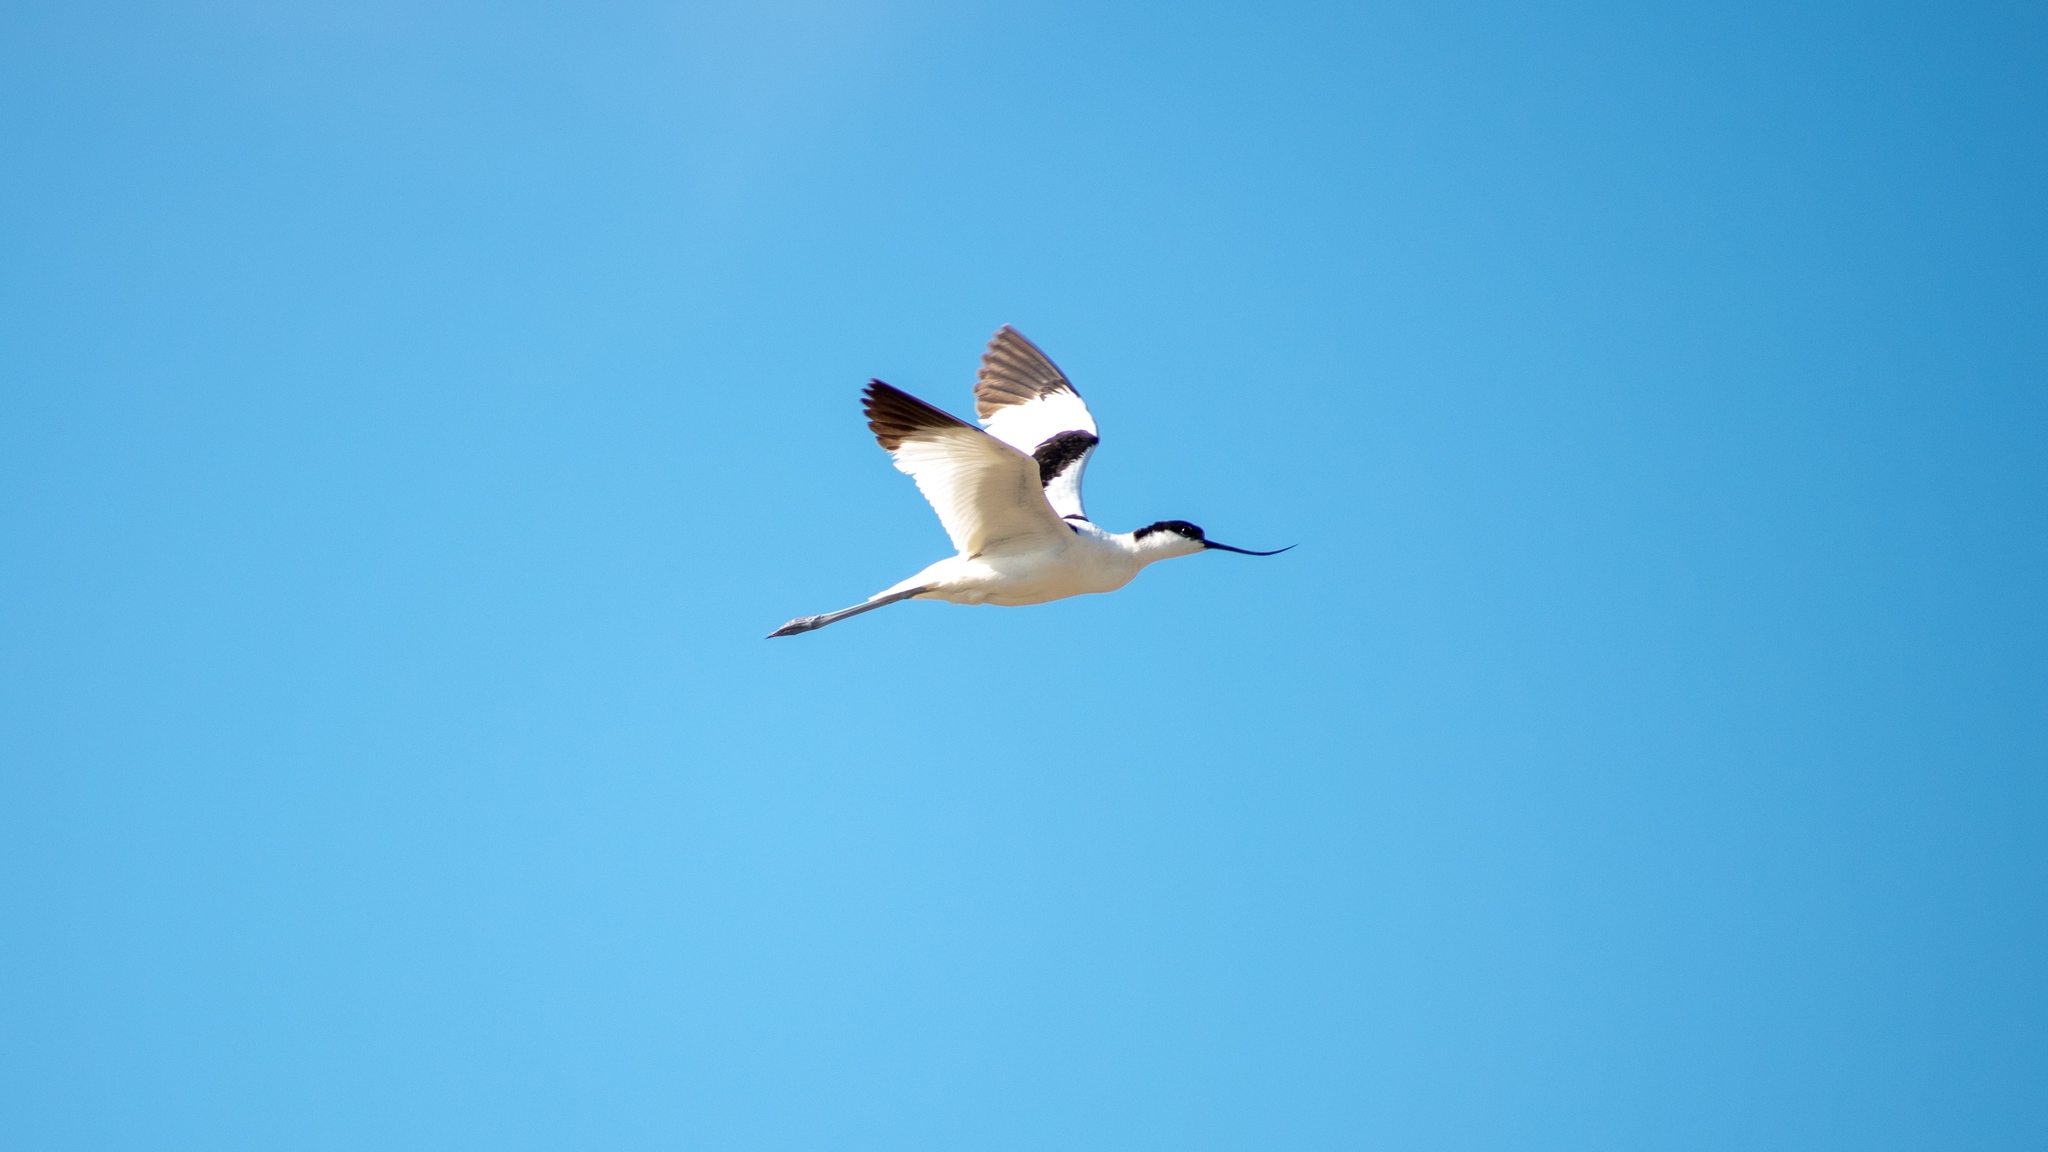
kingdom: Animalia
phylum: Chordata
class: Aves
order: Charadriiformes
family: Recurvirostridae
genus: Recurvirostra
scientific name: Recurvirostra avosetta
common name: Pied avocet
